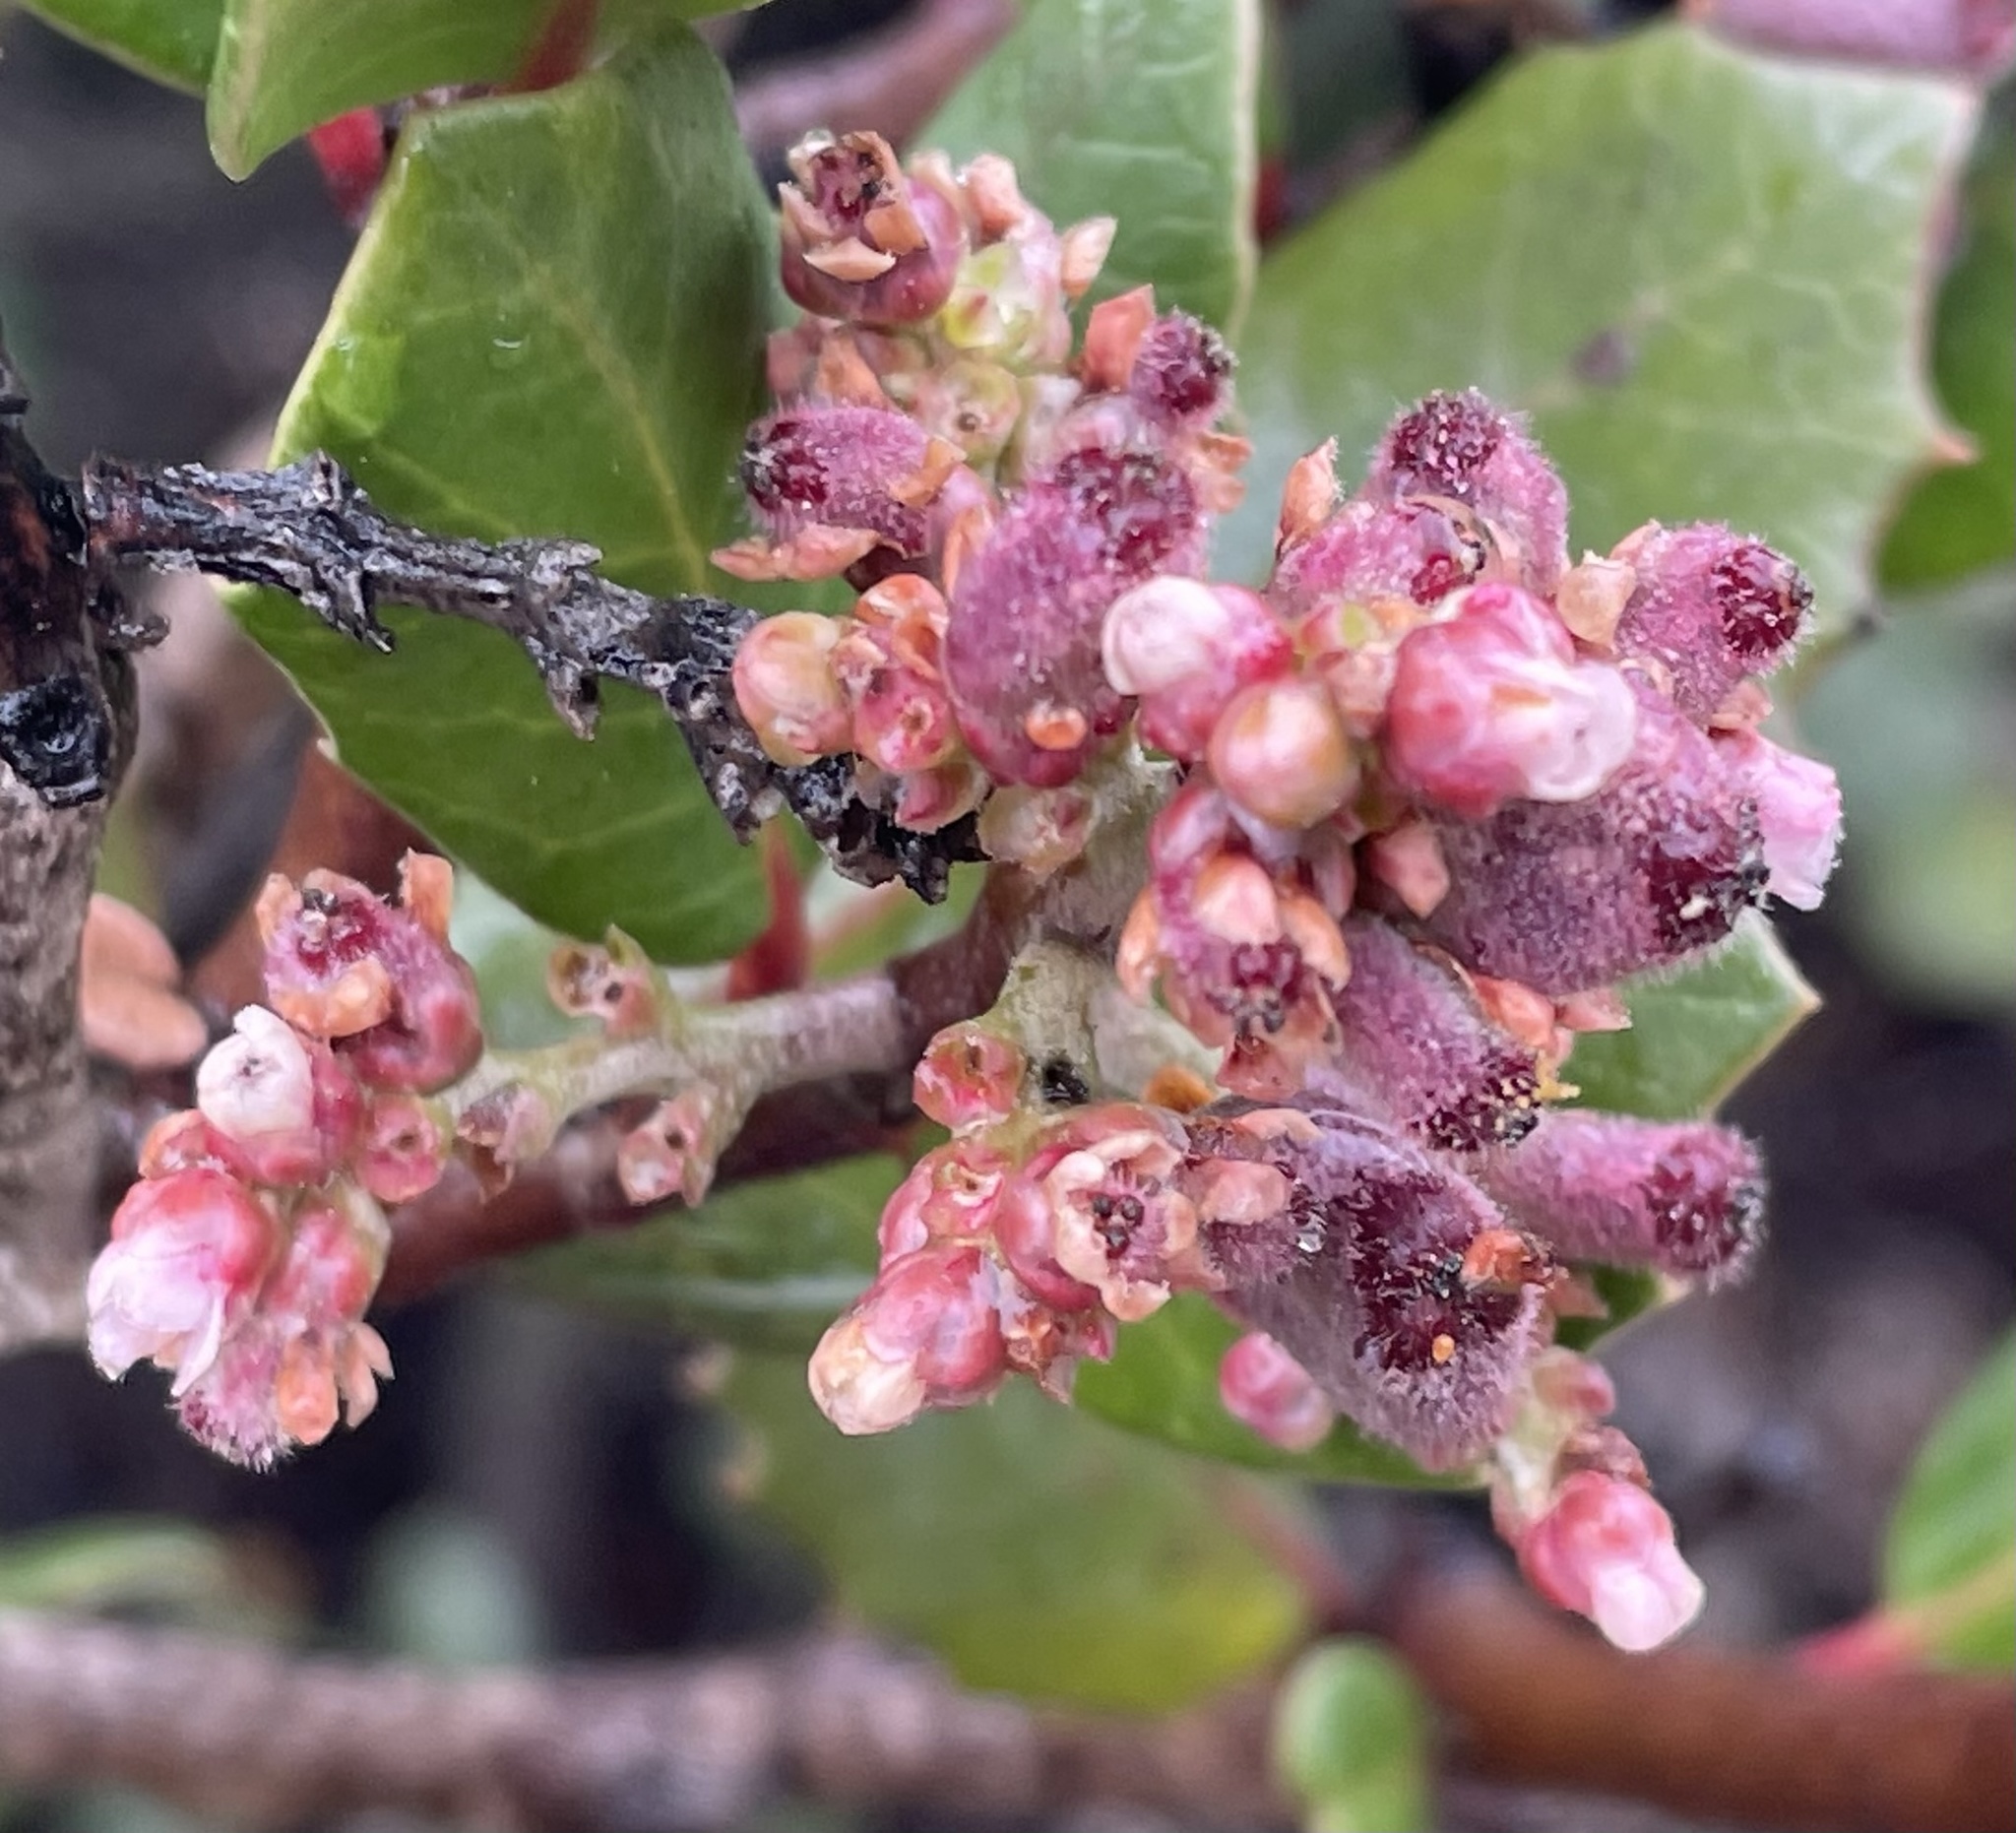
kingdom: Plantae
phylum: Tracheophyta
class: Magnoliopsida
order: Sapindales
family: Anacardiaceae
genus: Rhus
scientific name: Rhus integrifolia
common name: Lemonade sumac
